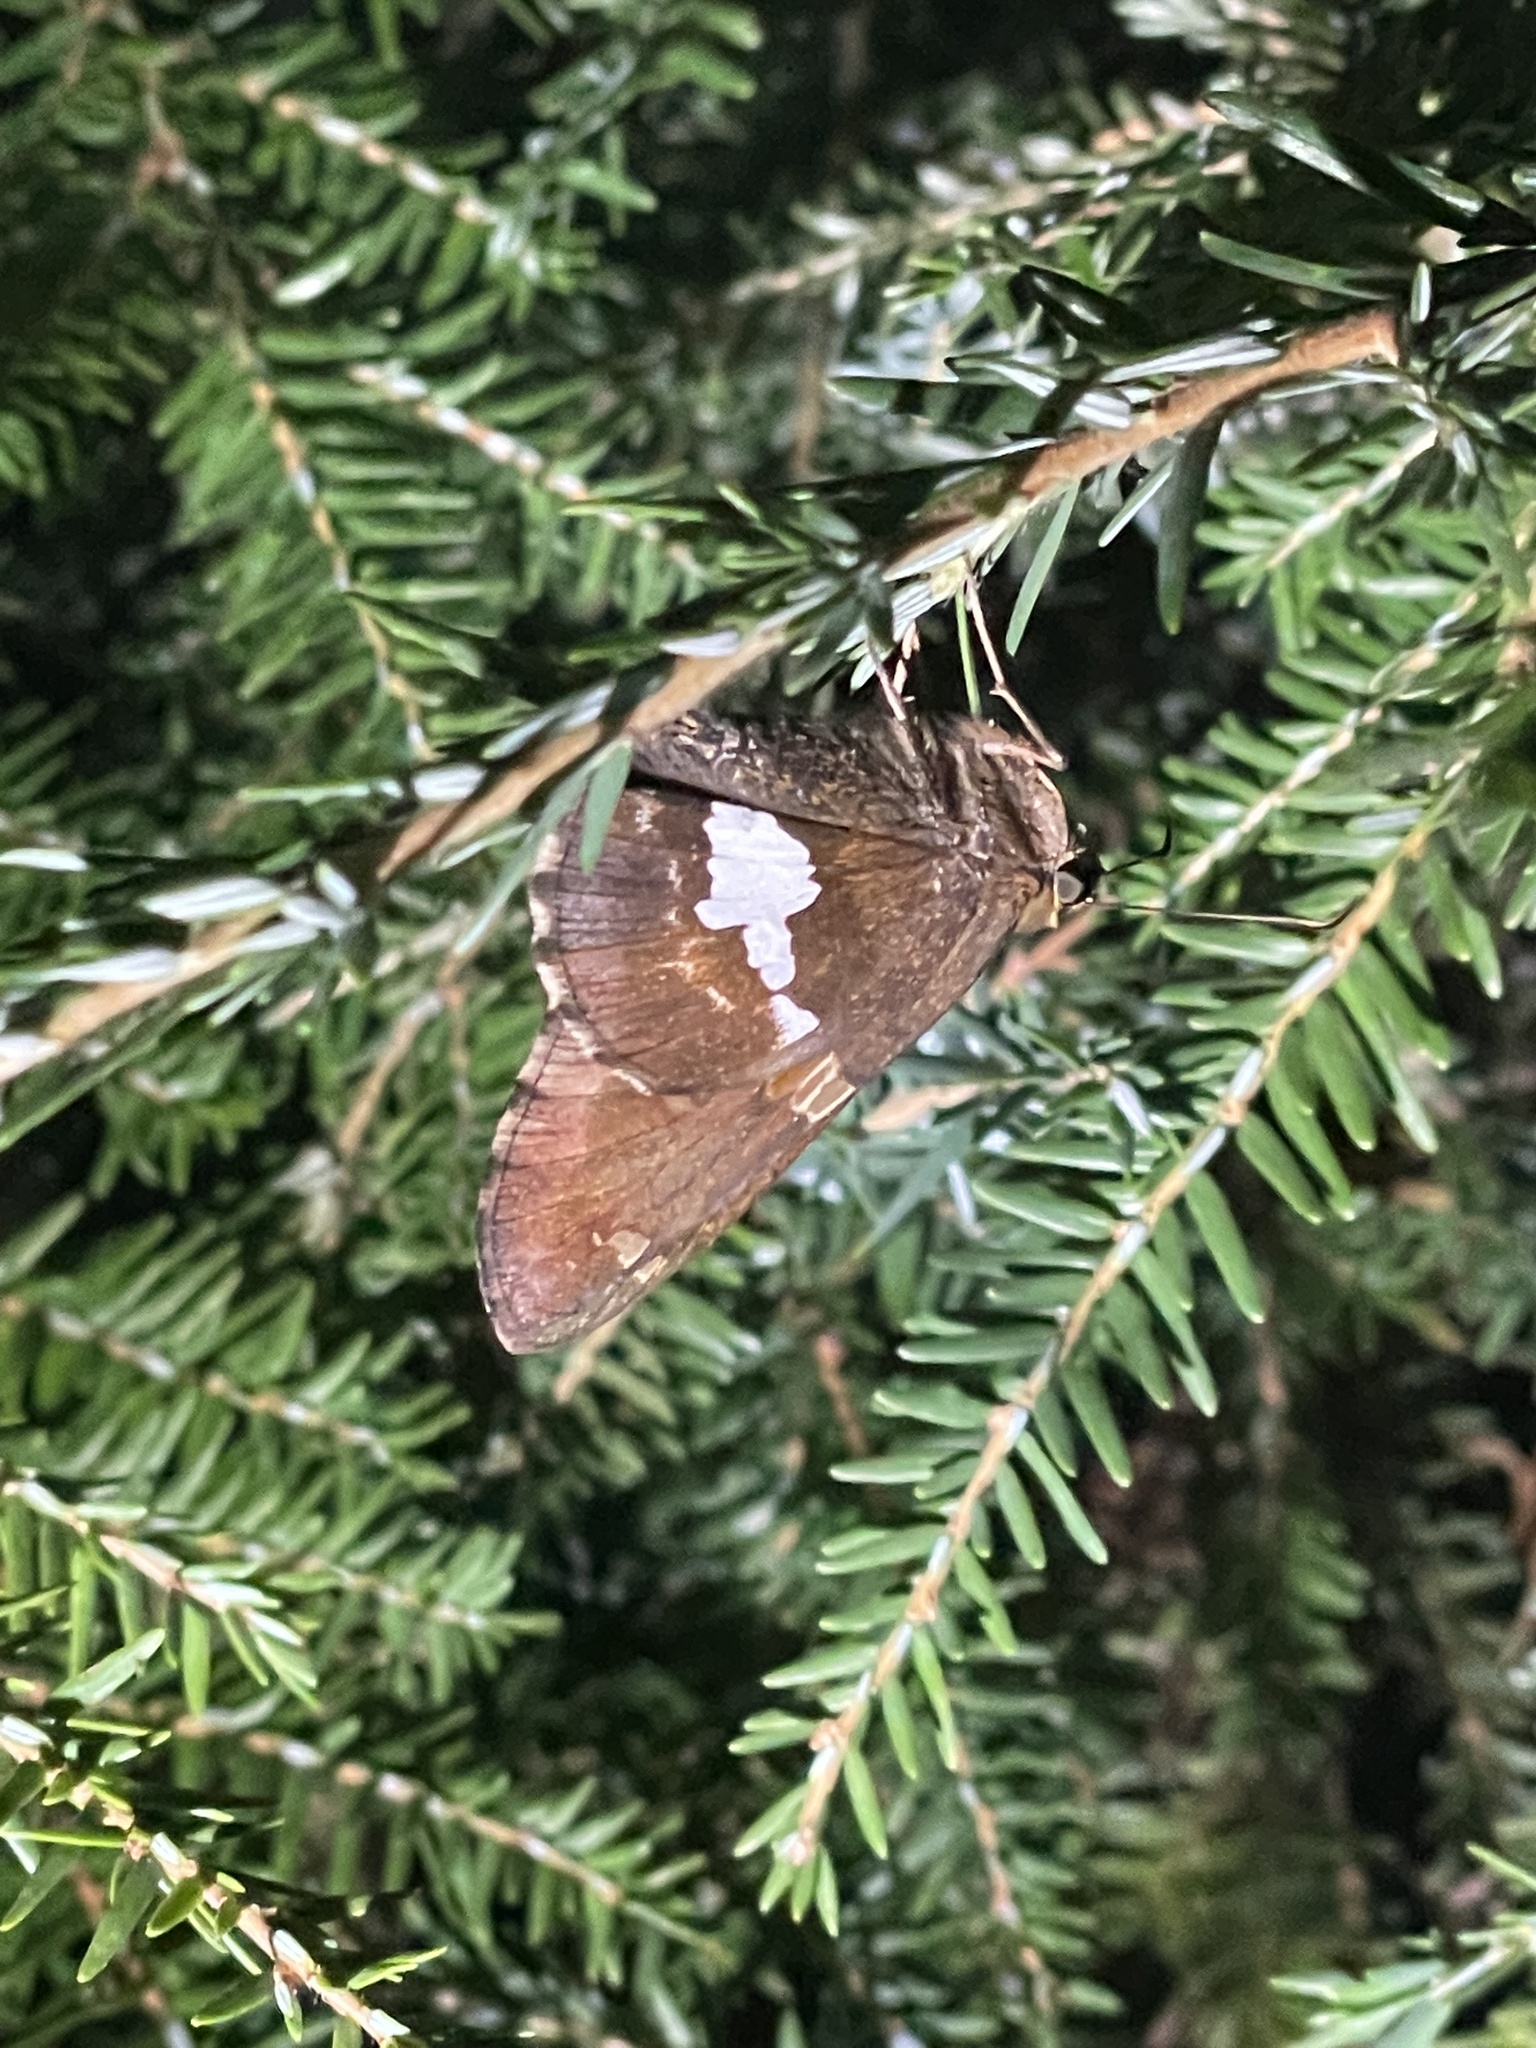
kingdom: Animalia
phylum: Arthropoda
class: Insecta
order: Lepidoptera
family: Hesperiidae
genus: Epargyreus
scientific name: Epargyreus clarus
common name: Silver-spotted skipper
